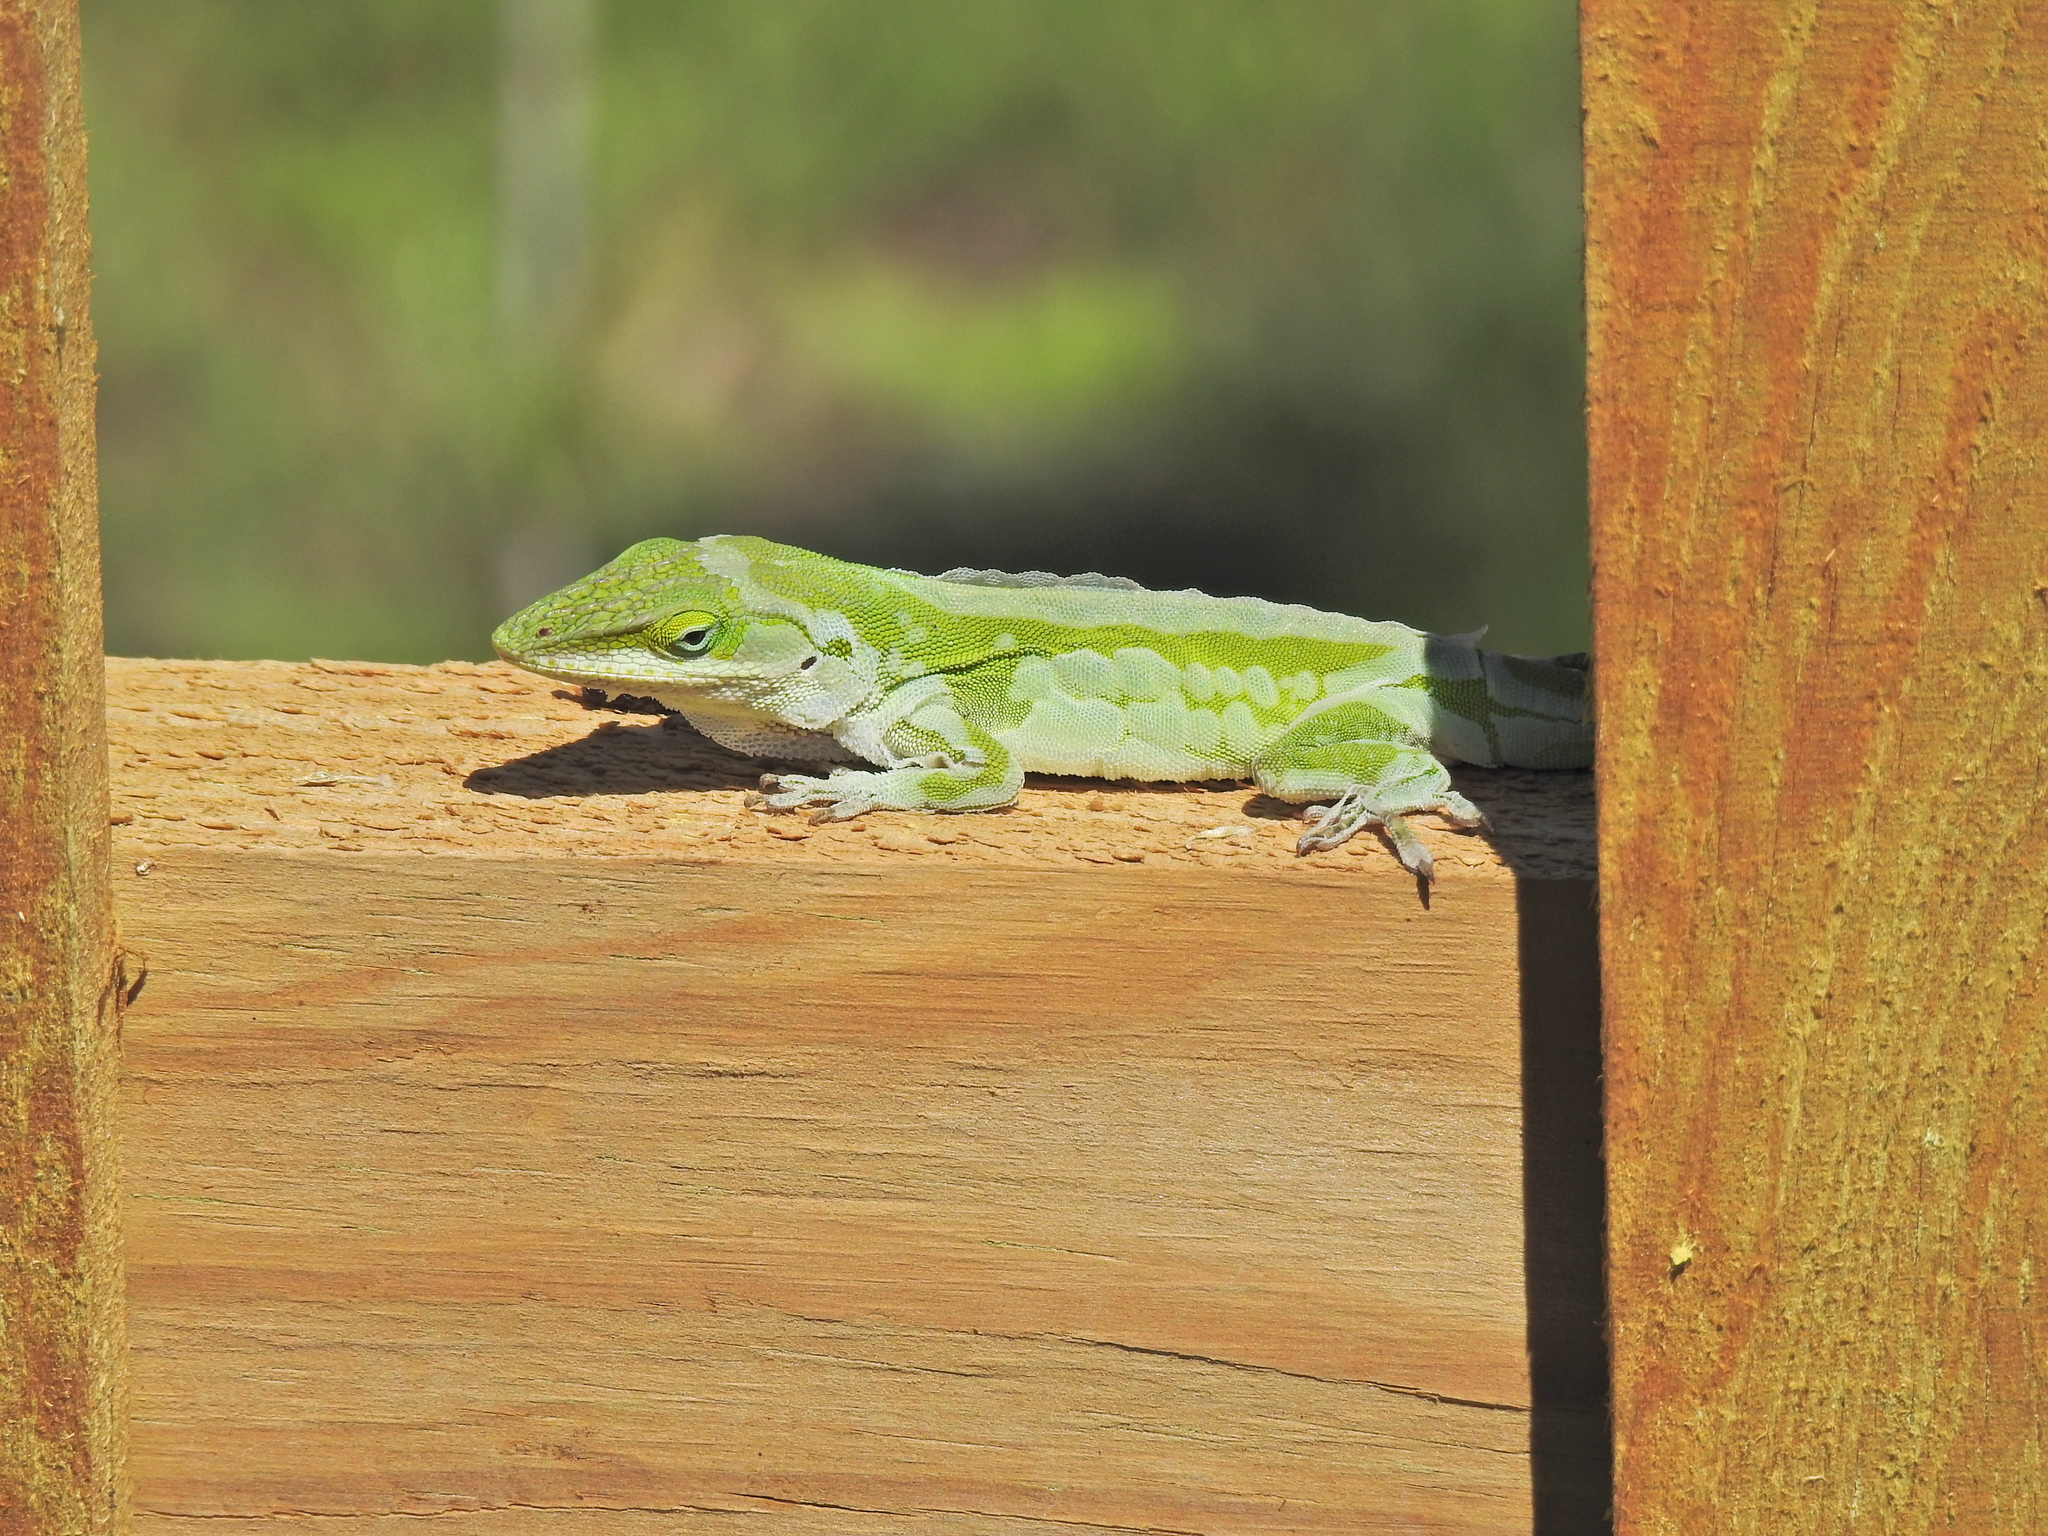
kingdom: Animalia
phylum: Chordata
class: Squamata
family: Dactyloidae
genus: Anolis
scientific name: Anolis carolinensis
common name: Green anole
